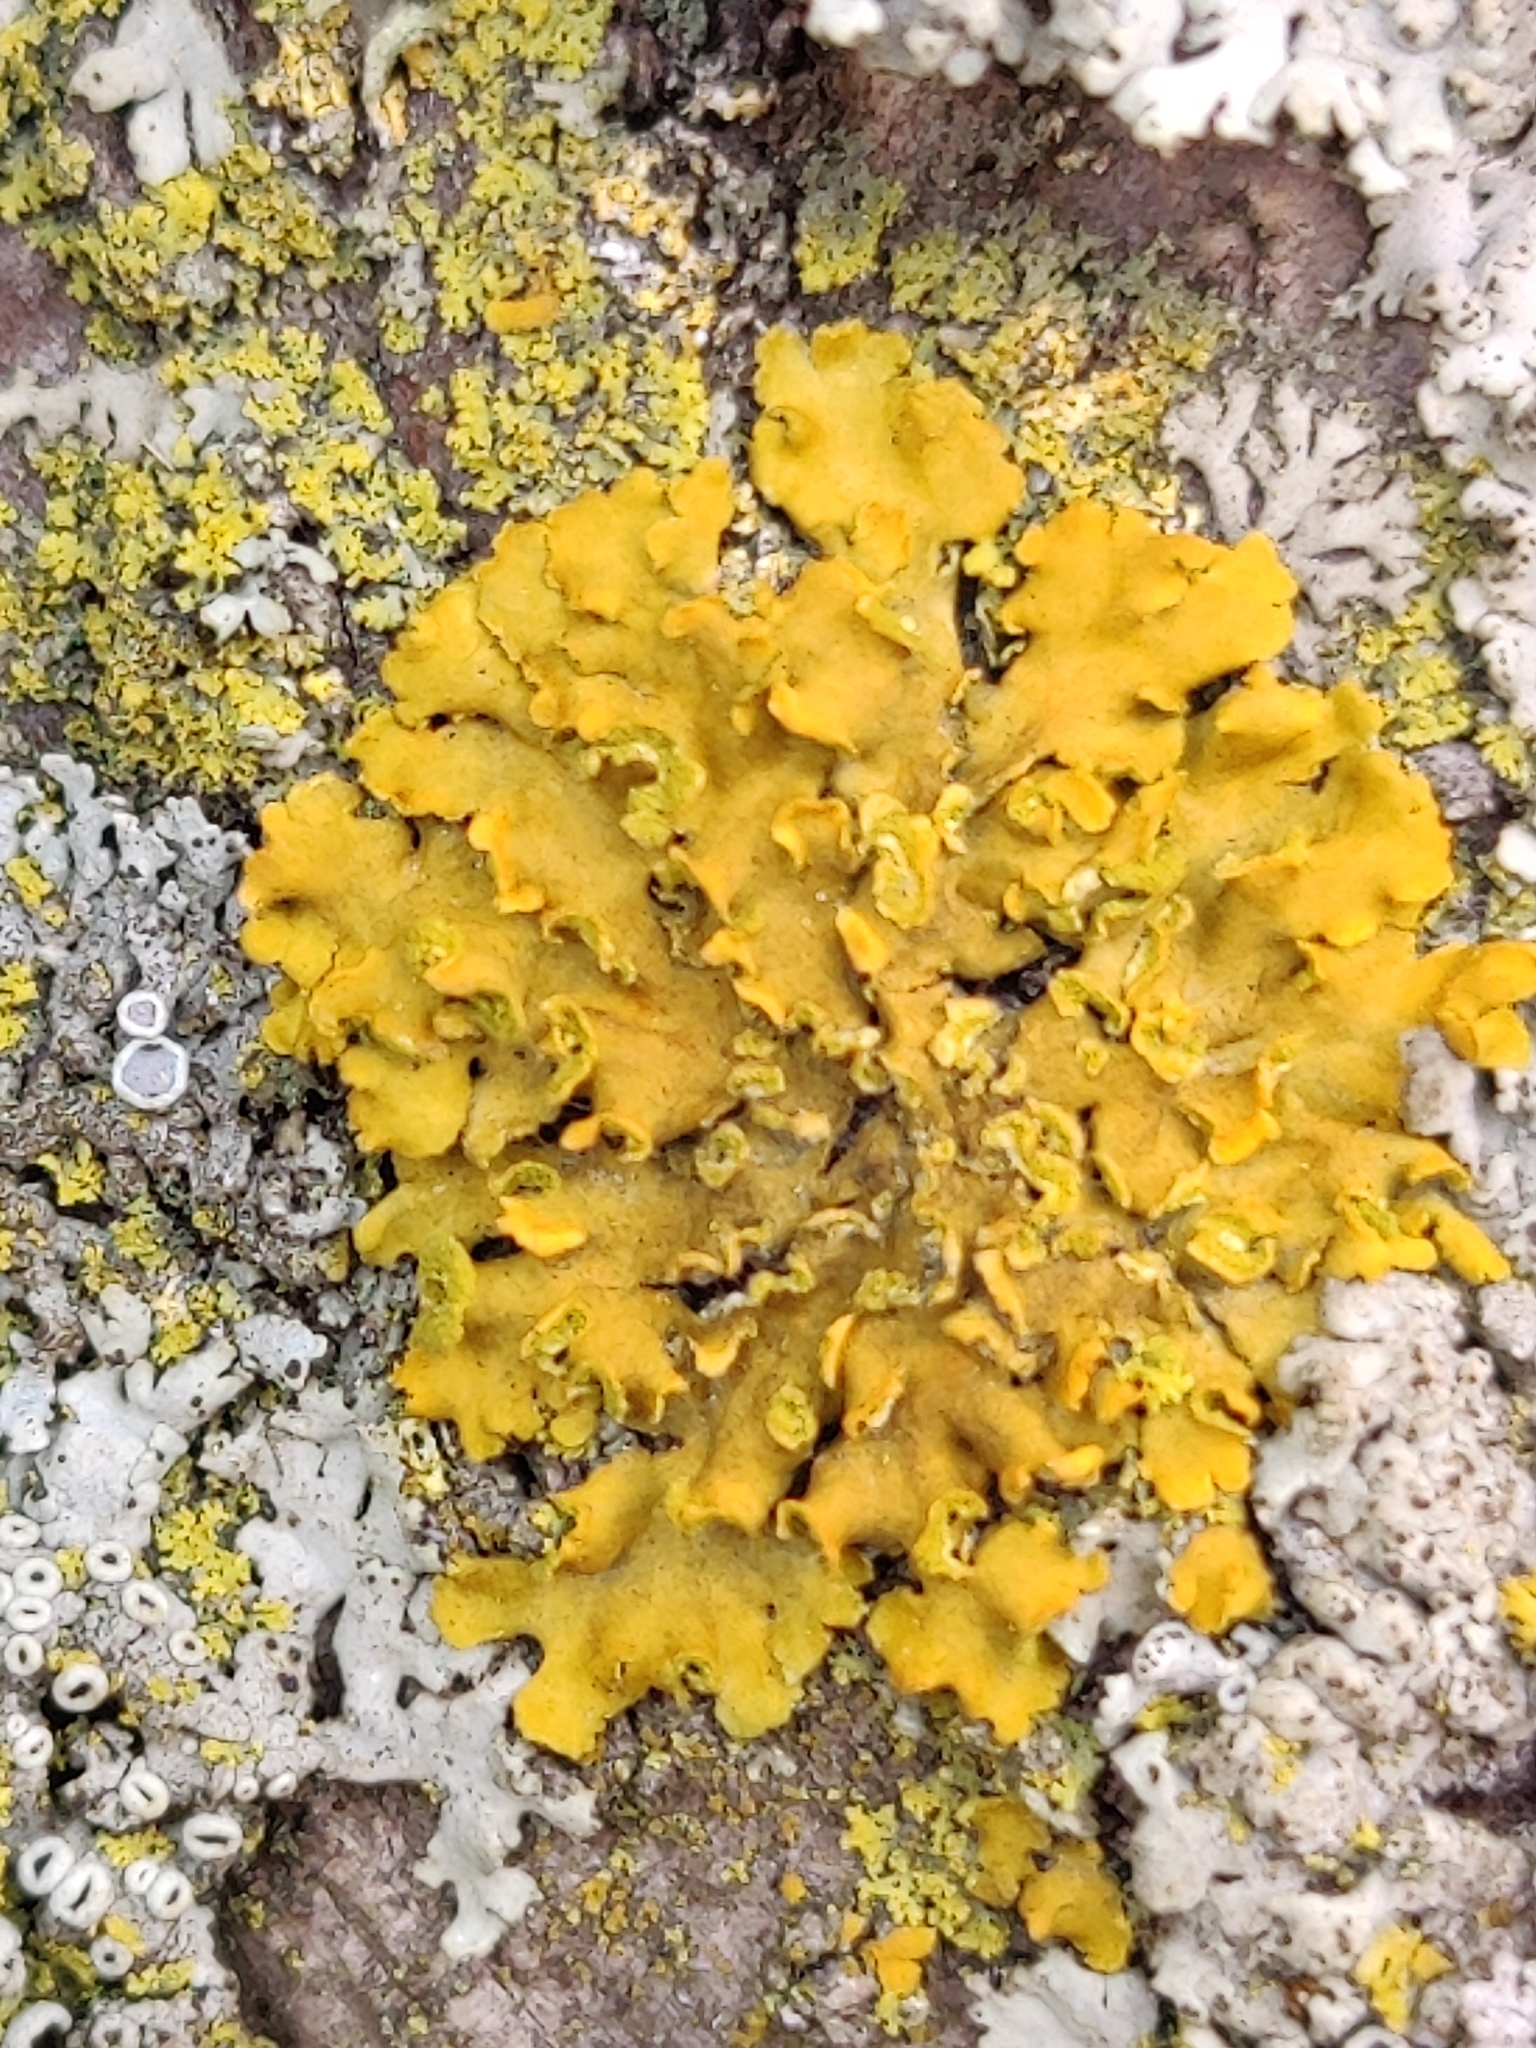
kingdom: Fungi
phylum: Ascomycota
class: Lecanoromycetes
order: Teloschistales
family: Teloschistaceae
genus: Oxneria
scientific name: Oxneria fallax
